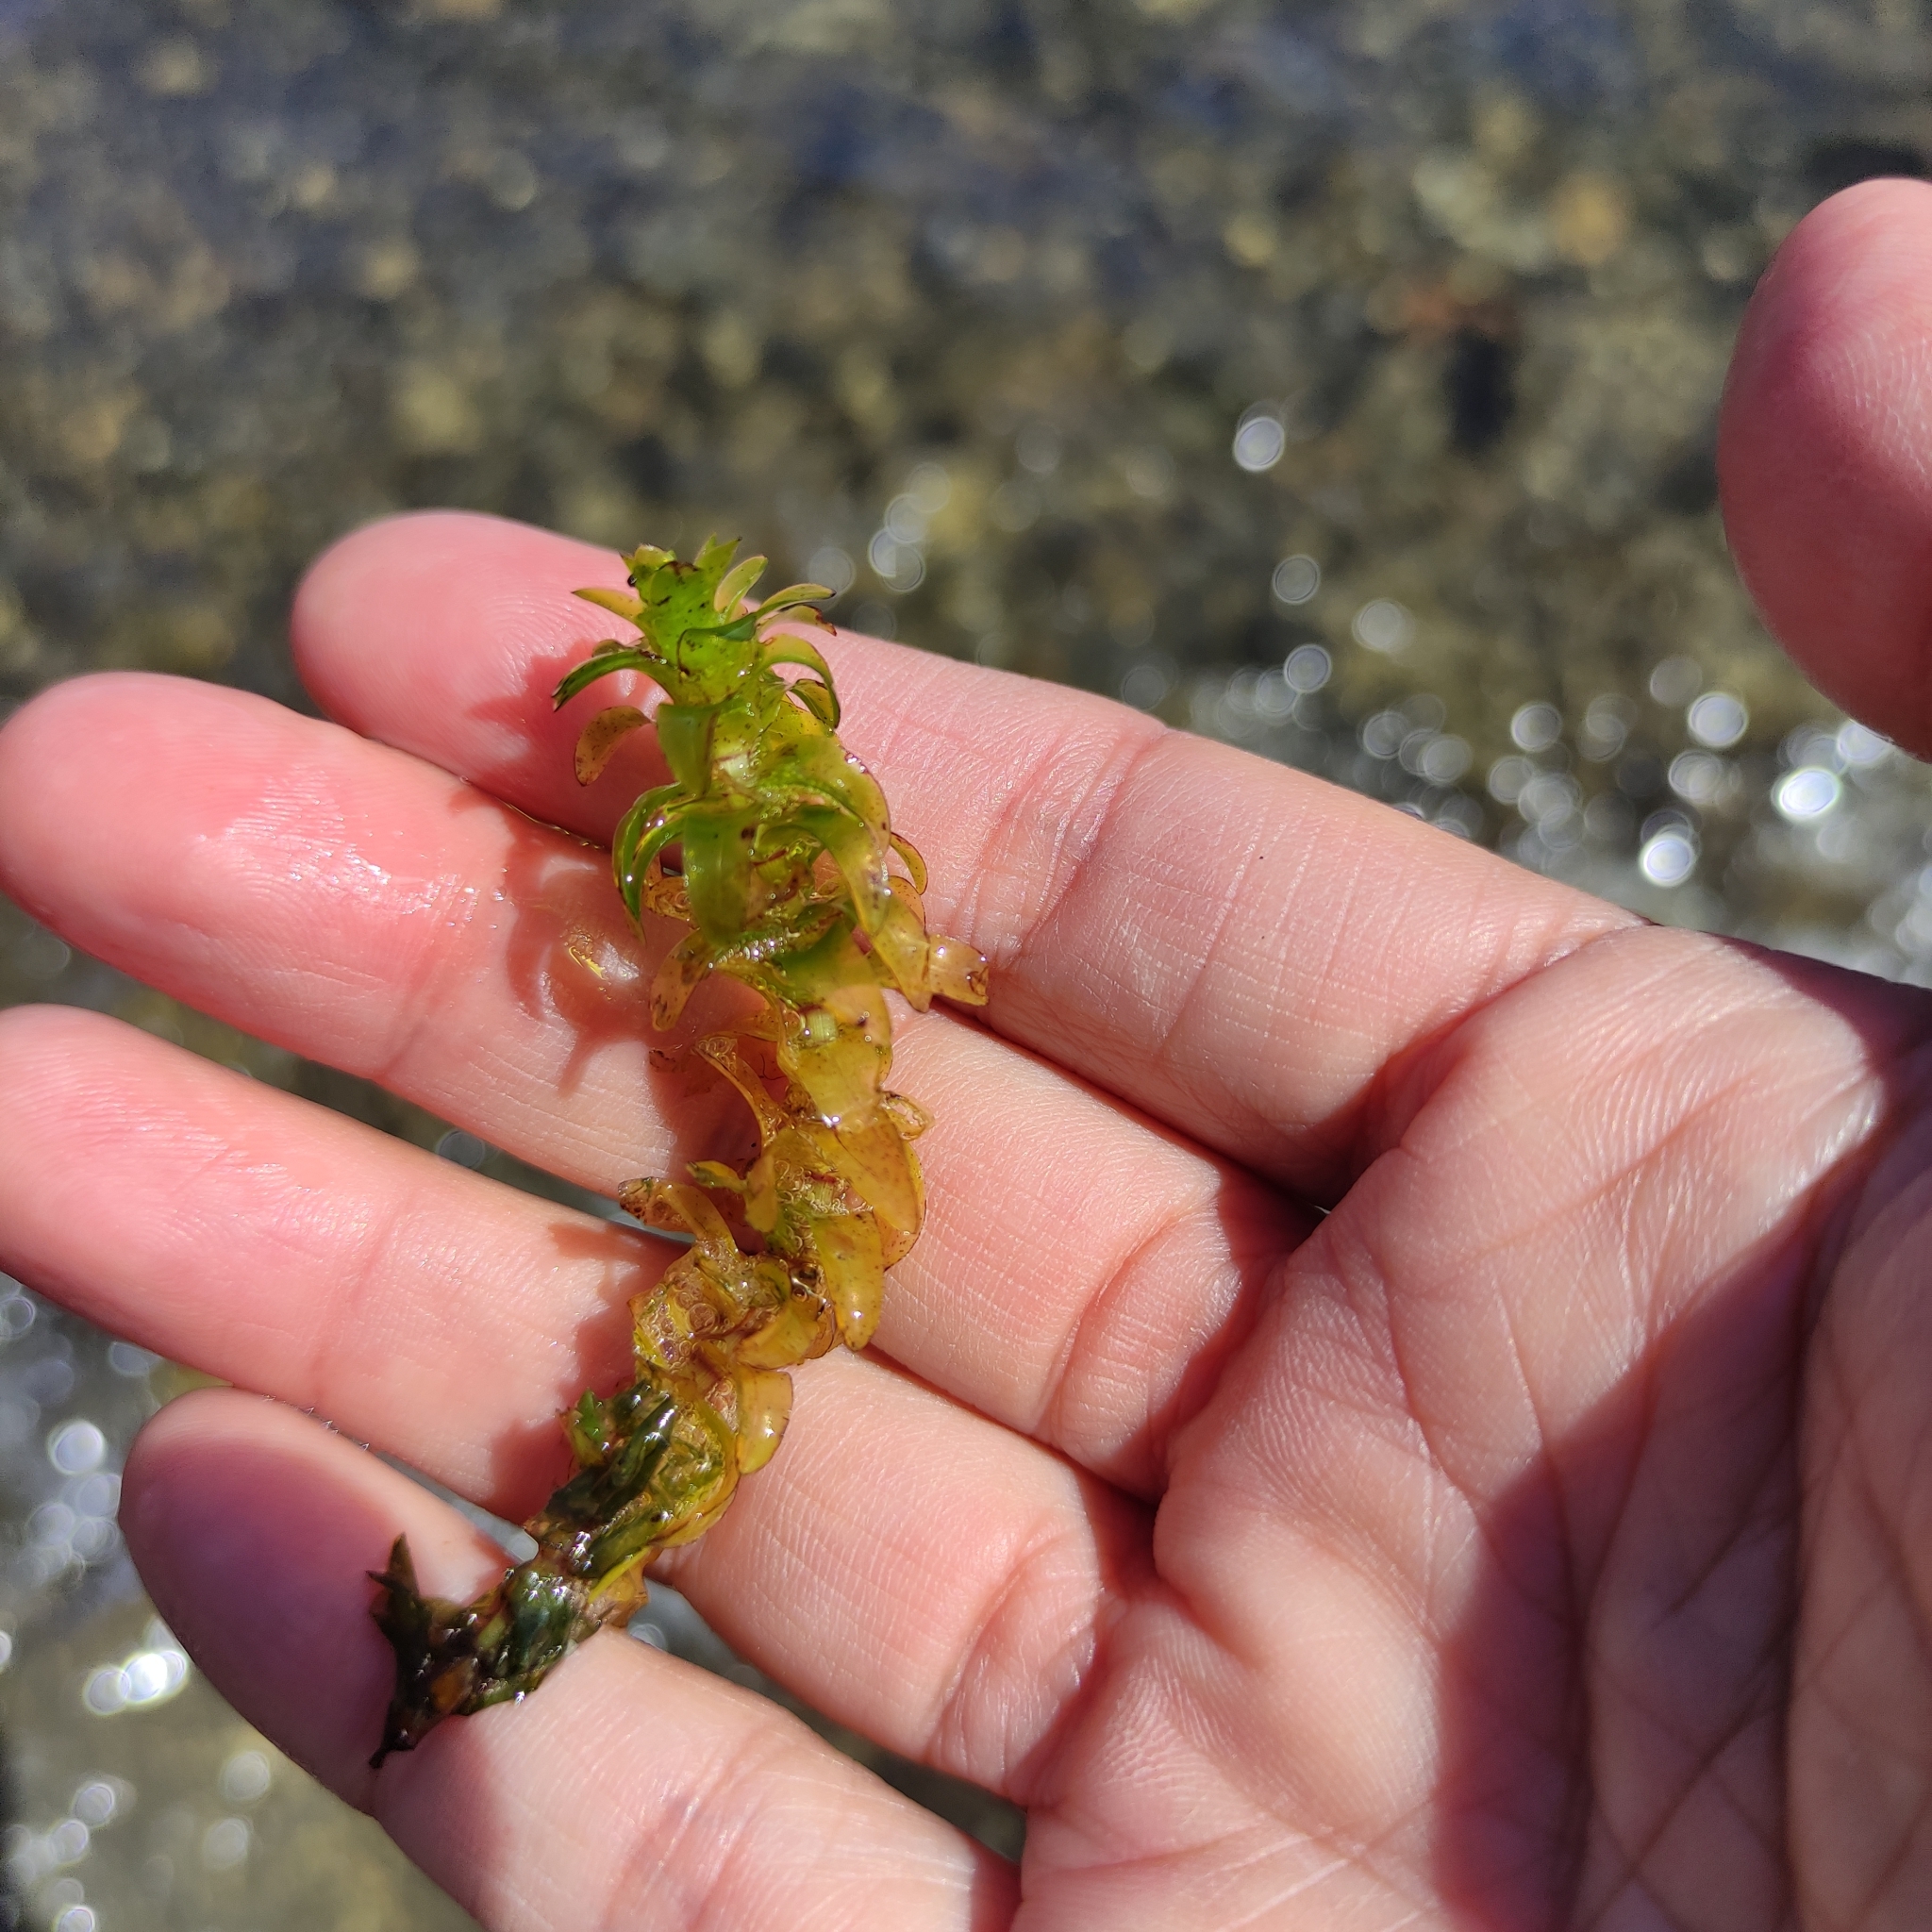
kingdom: Plantae
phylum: Tracheophyta
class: Liliopsida
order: Alismatales
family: Hydrocharitaceae
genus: Elodea
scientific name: Elodea canadensis
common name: Canadian waterweed
